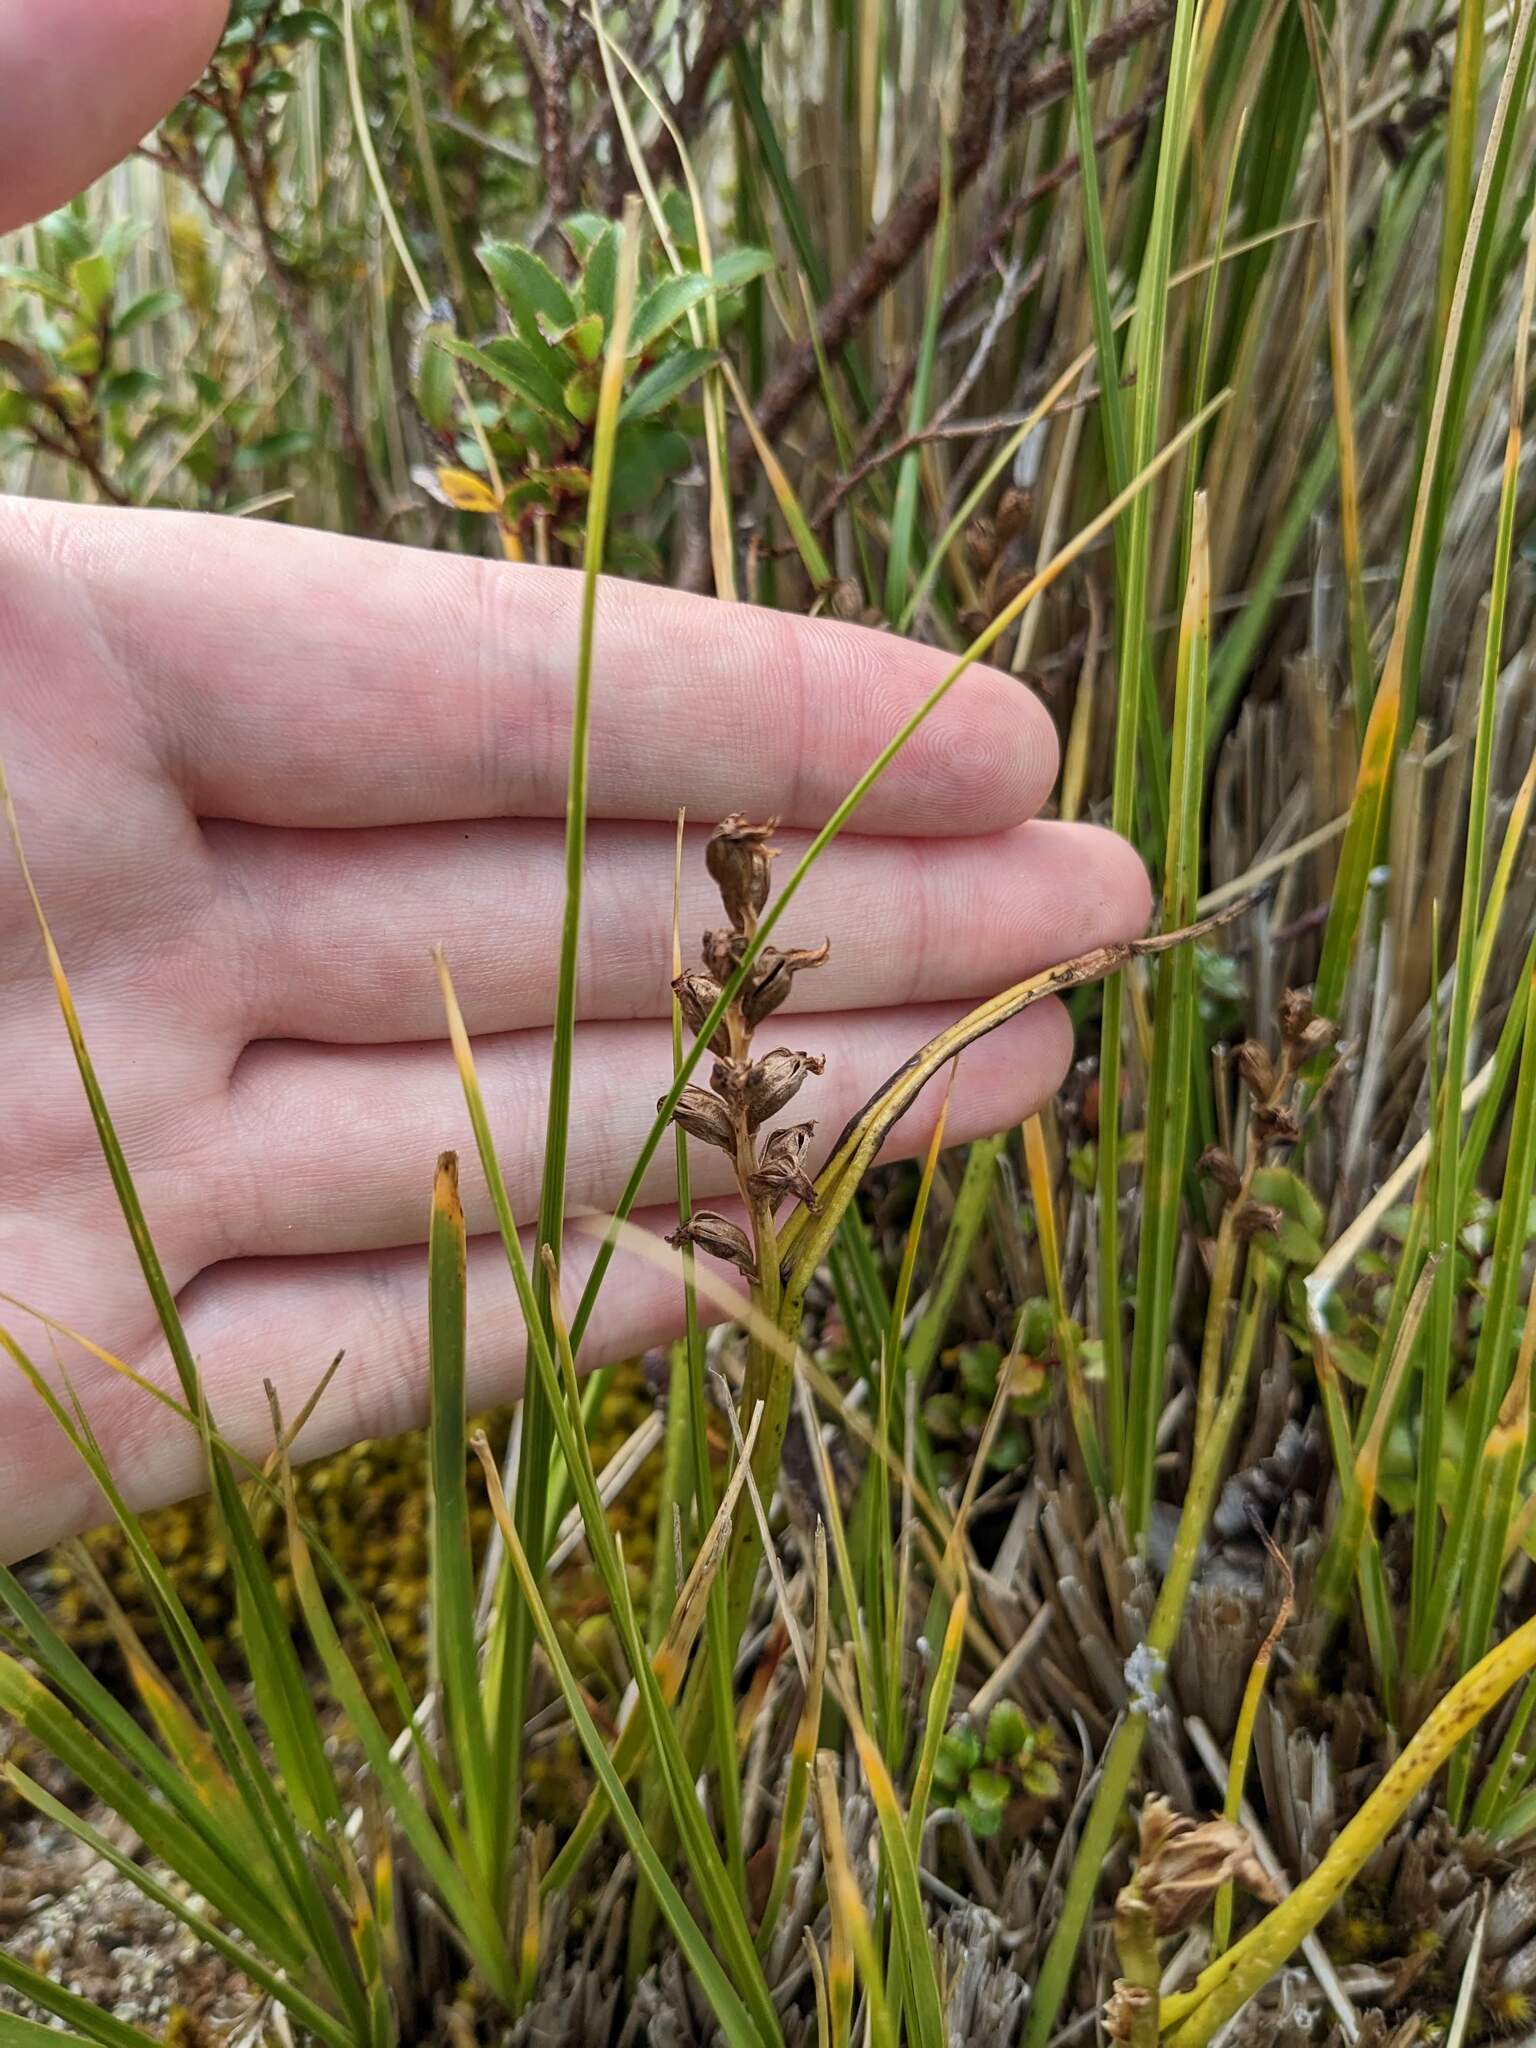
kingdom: Plantae
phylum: Tracheophyta
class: Liliopsida
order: Asparagales
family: Orchidaceae
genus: Prasophyllum
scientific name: Prasophyllum colensoi
